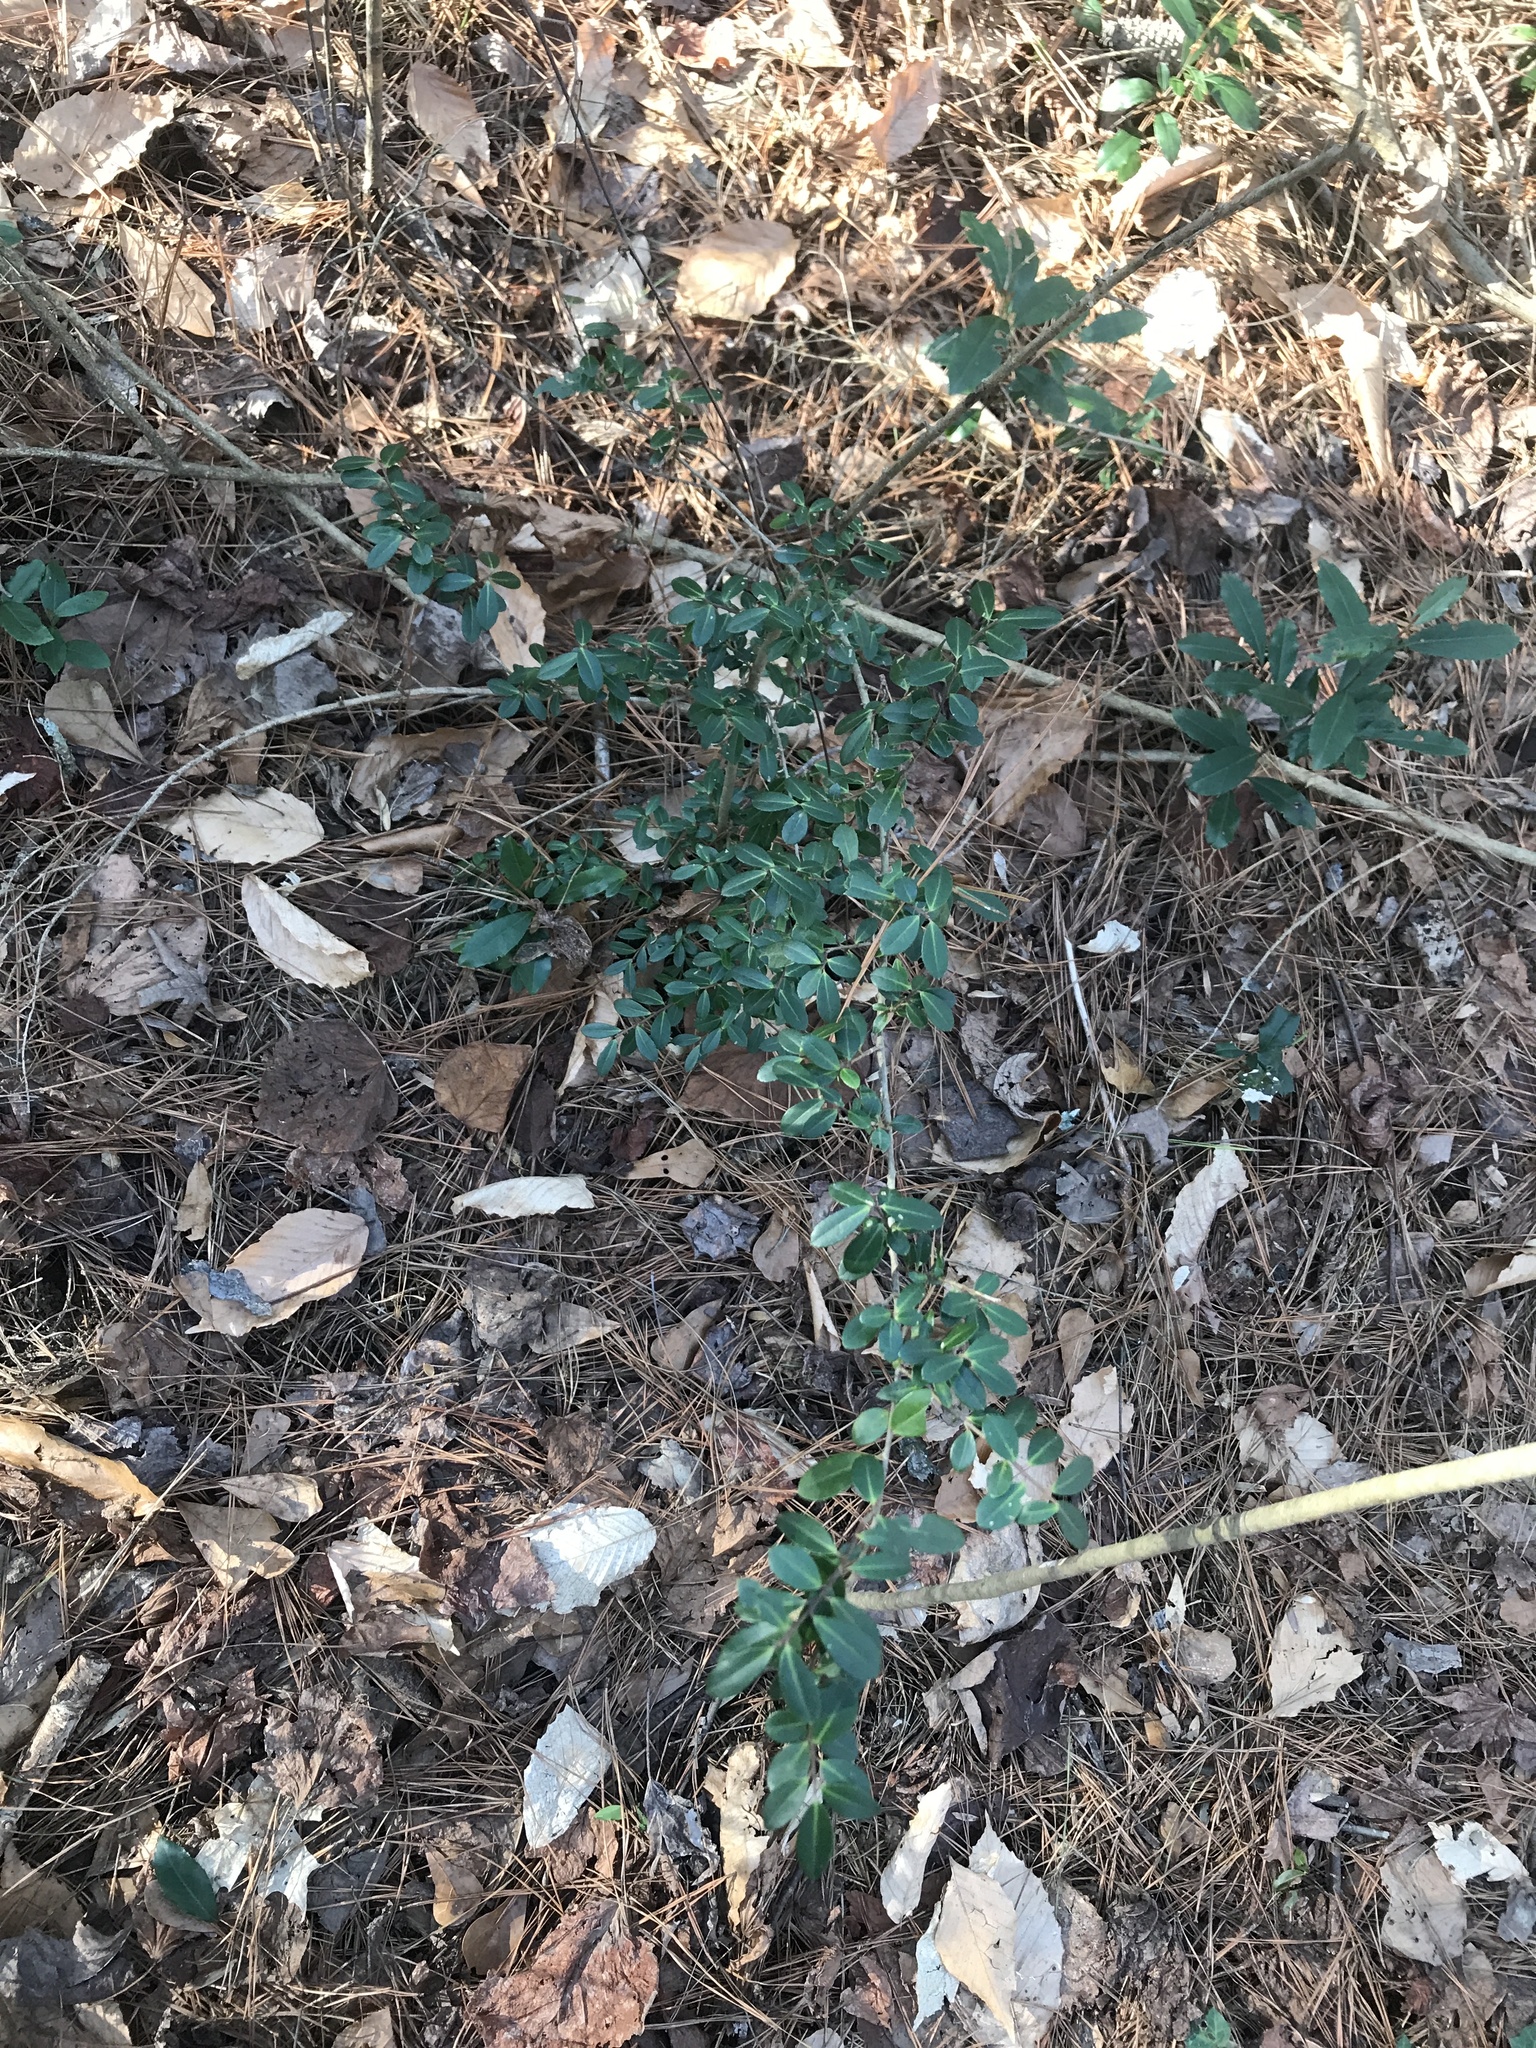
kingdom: Plantae
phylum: Tracheophyta
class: Magnoliopsida
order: Aquifoliales
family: Aquifoliaceae
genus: Ilex
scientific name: Ilex crenata
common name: Japanese holly
